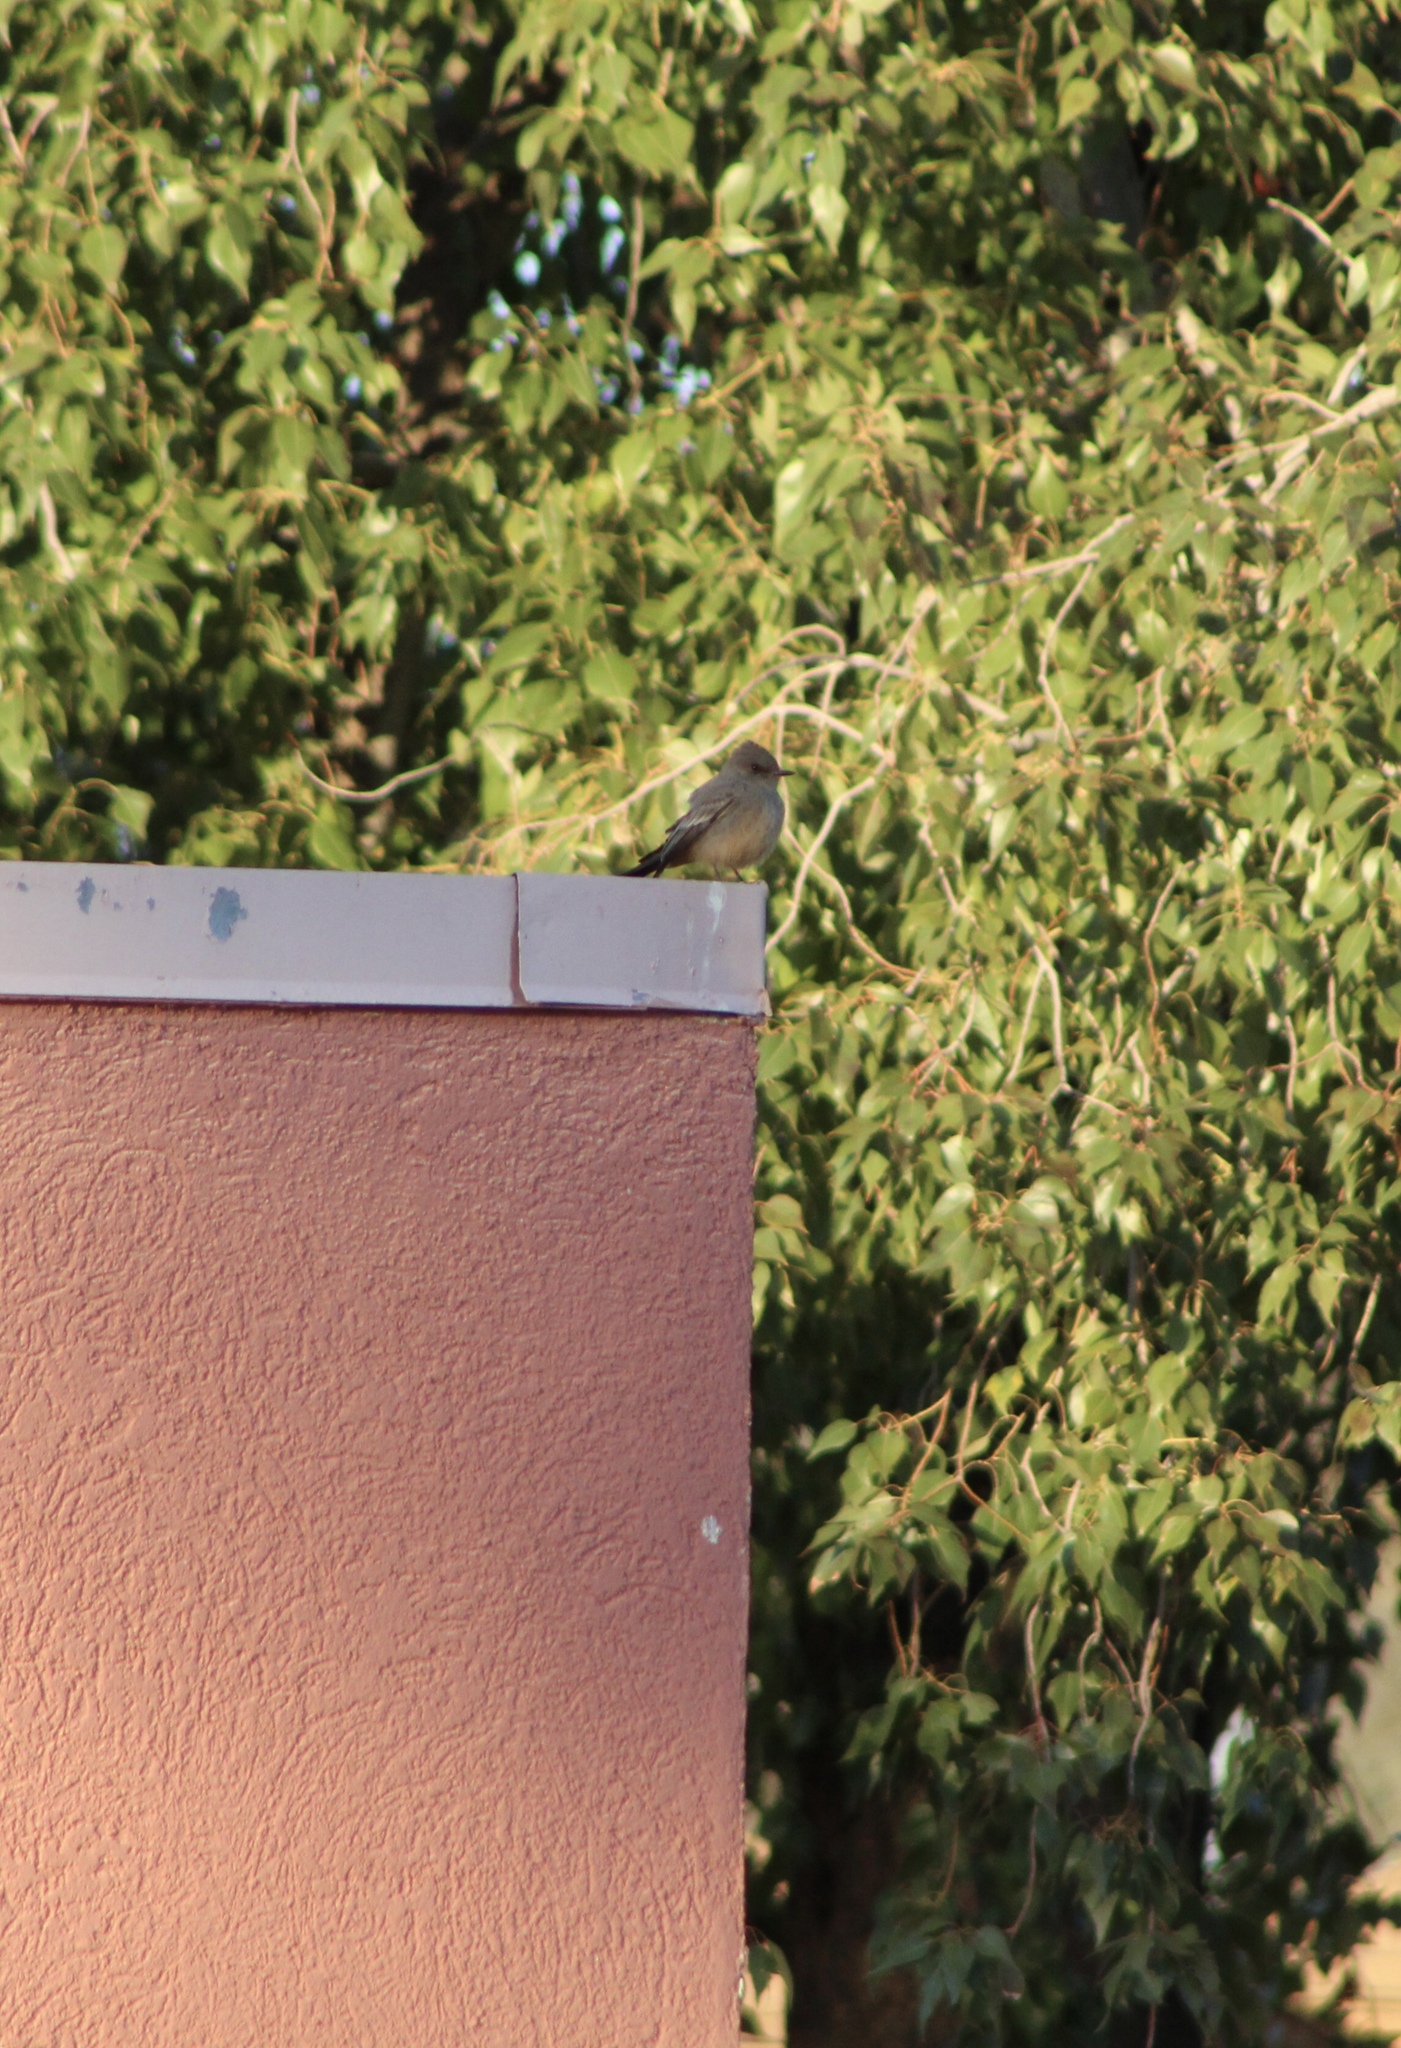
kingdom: Animalia
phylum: Chordata
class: Aves
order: Passeriformes
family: Tyrannidae
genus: Sayornis
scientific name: Sayornis saya
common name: Say's phoebe
